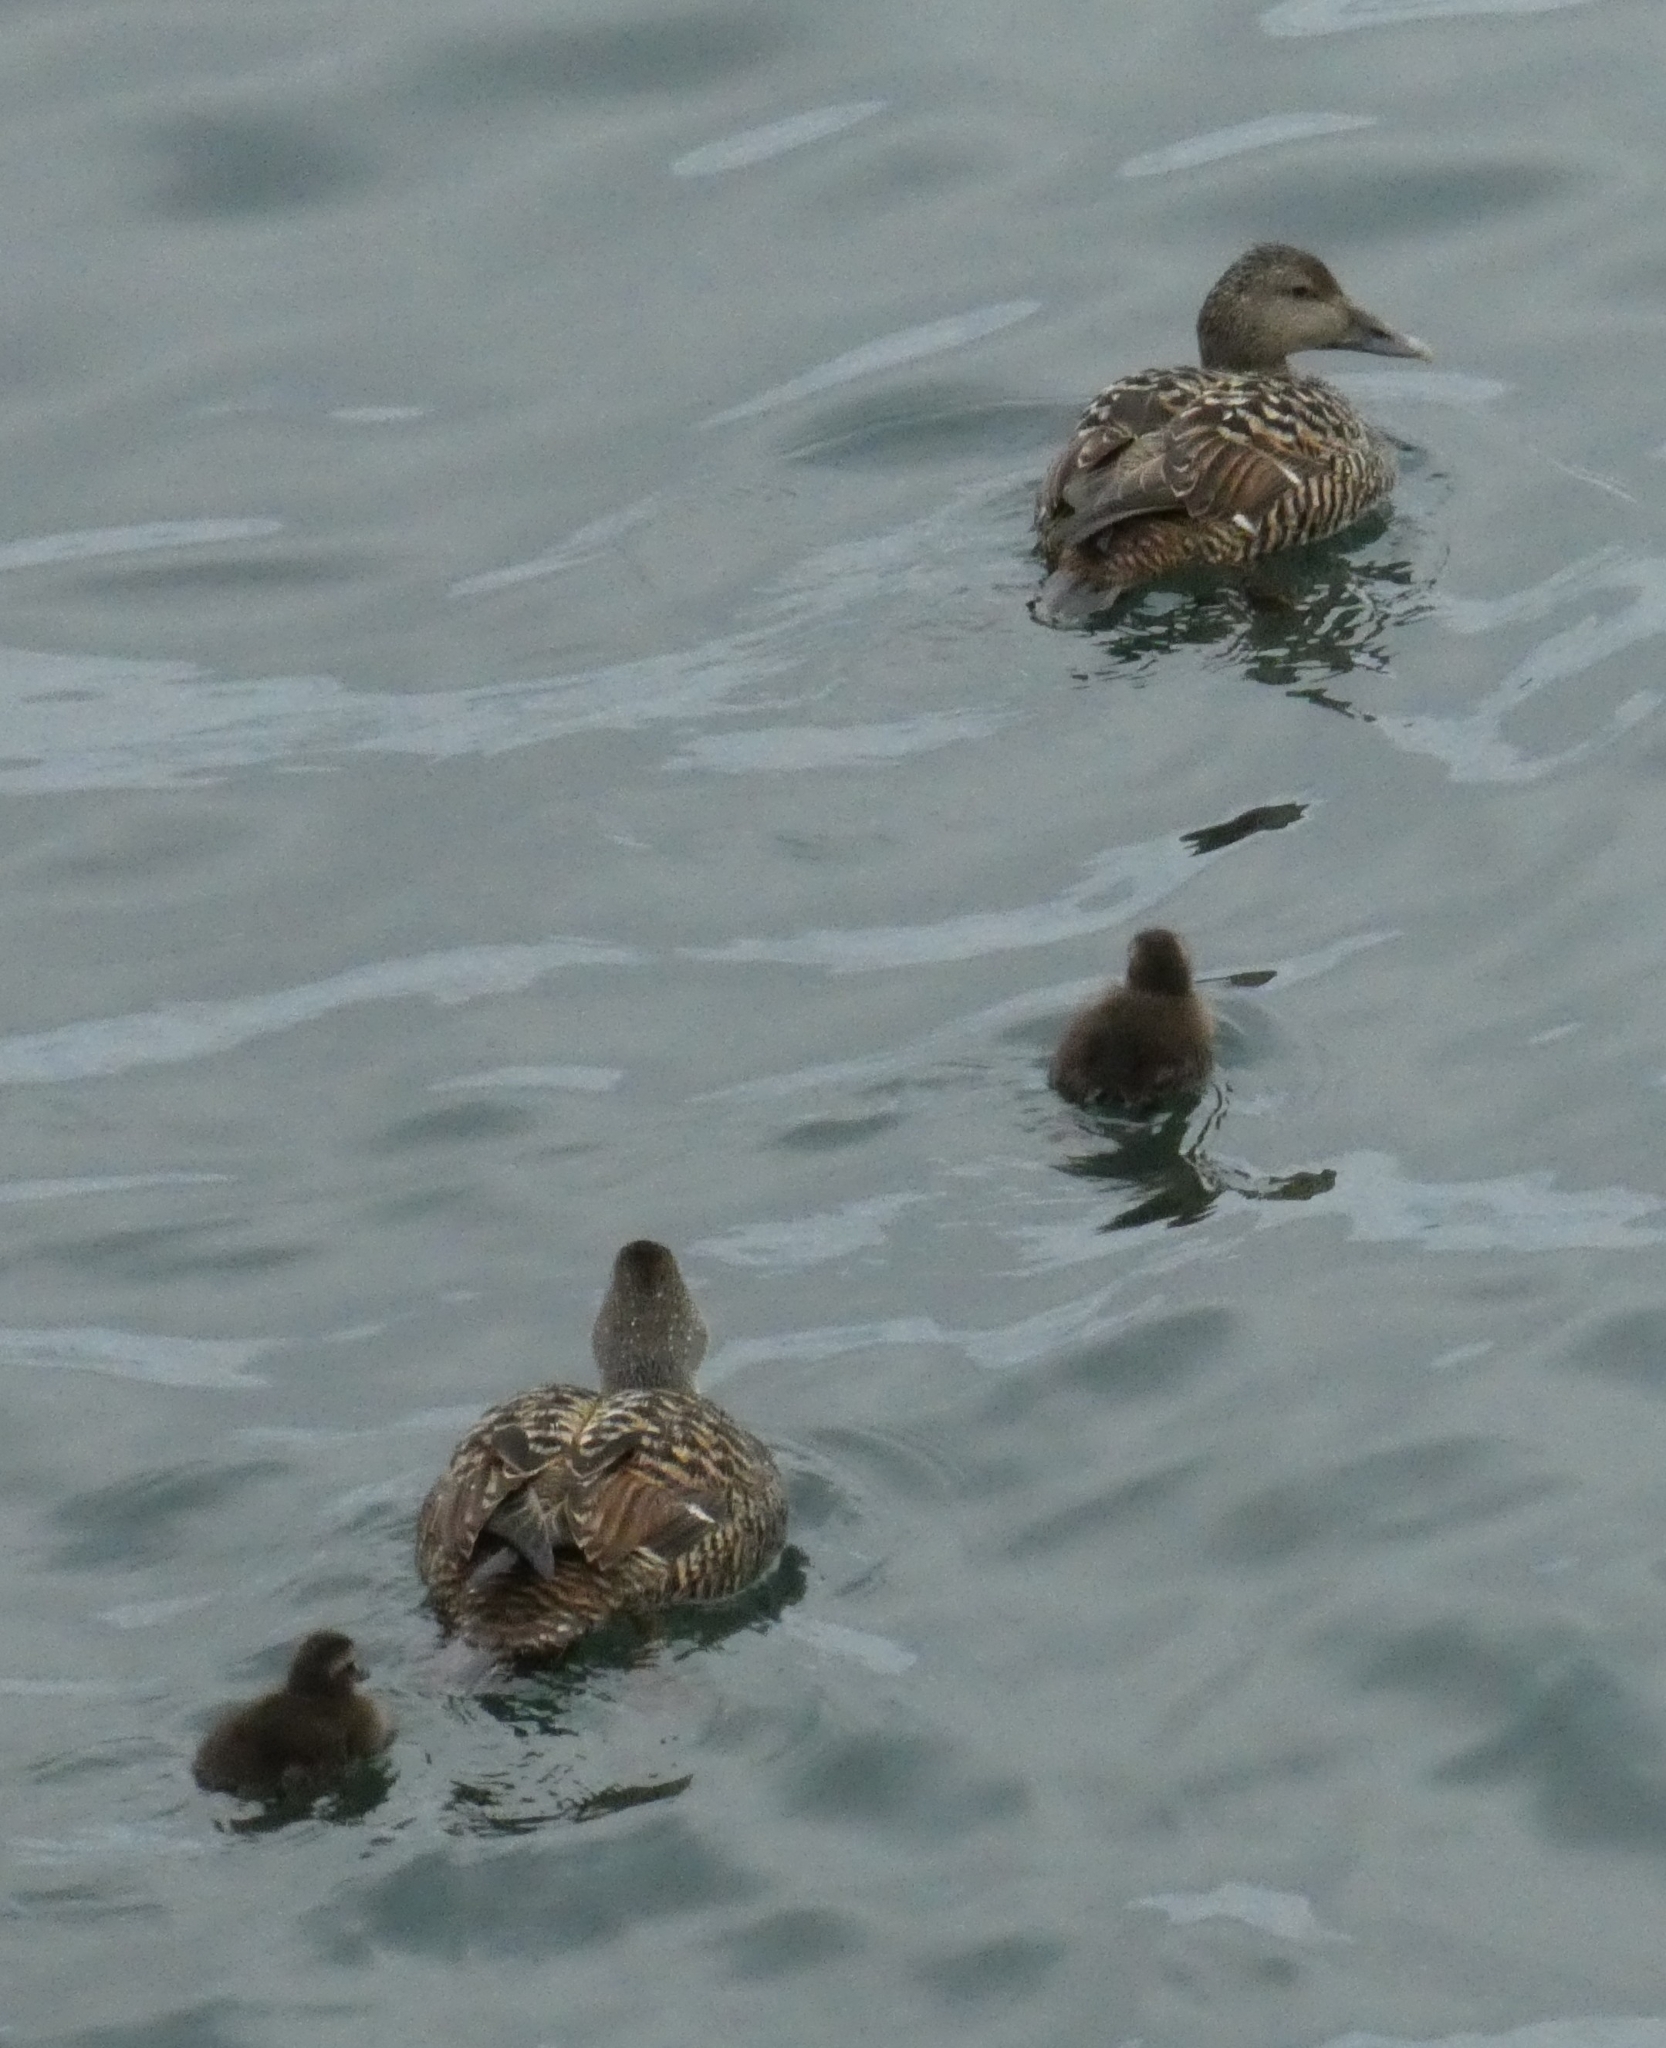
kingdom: Animalia
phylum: Chordata
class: Aves
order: Anseriformes
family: Anatidae
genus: Somateria
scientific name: Somateria mollissima
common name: Common eider
